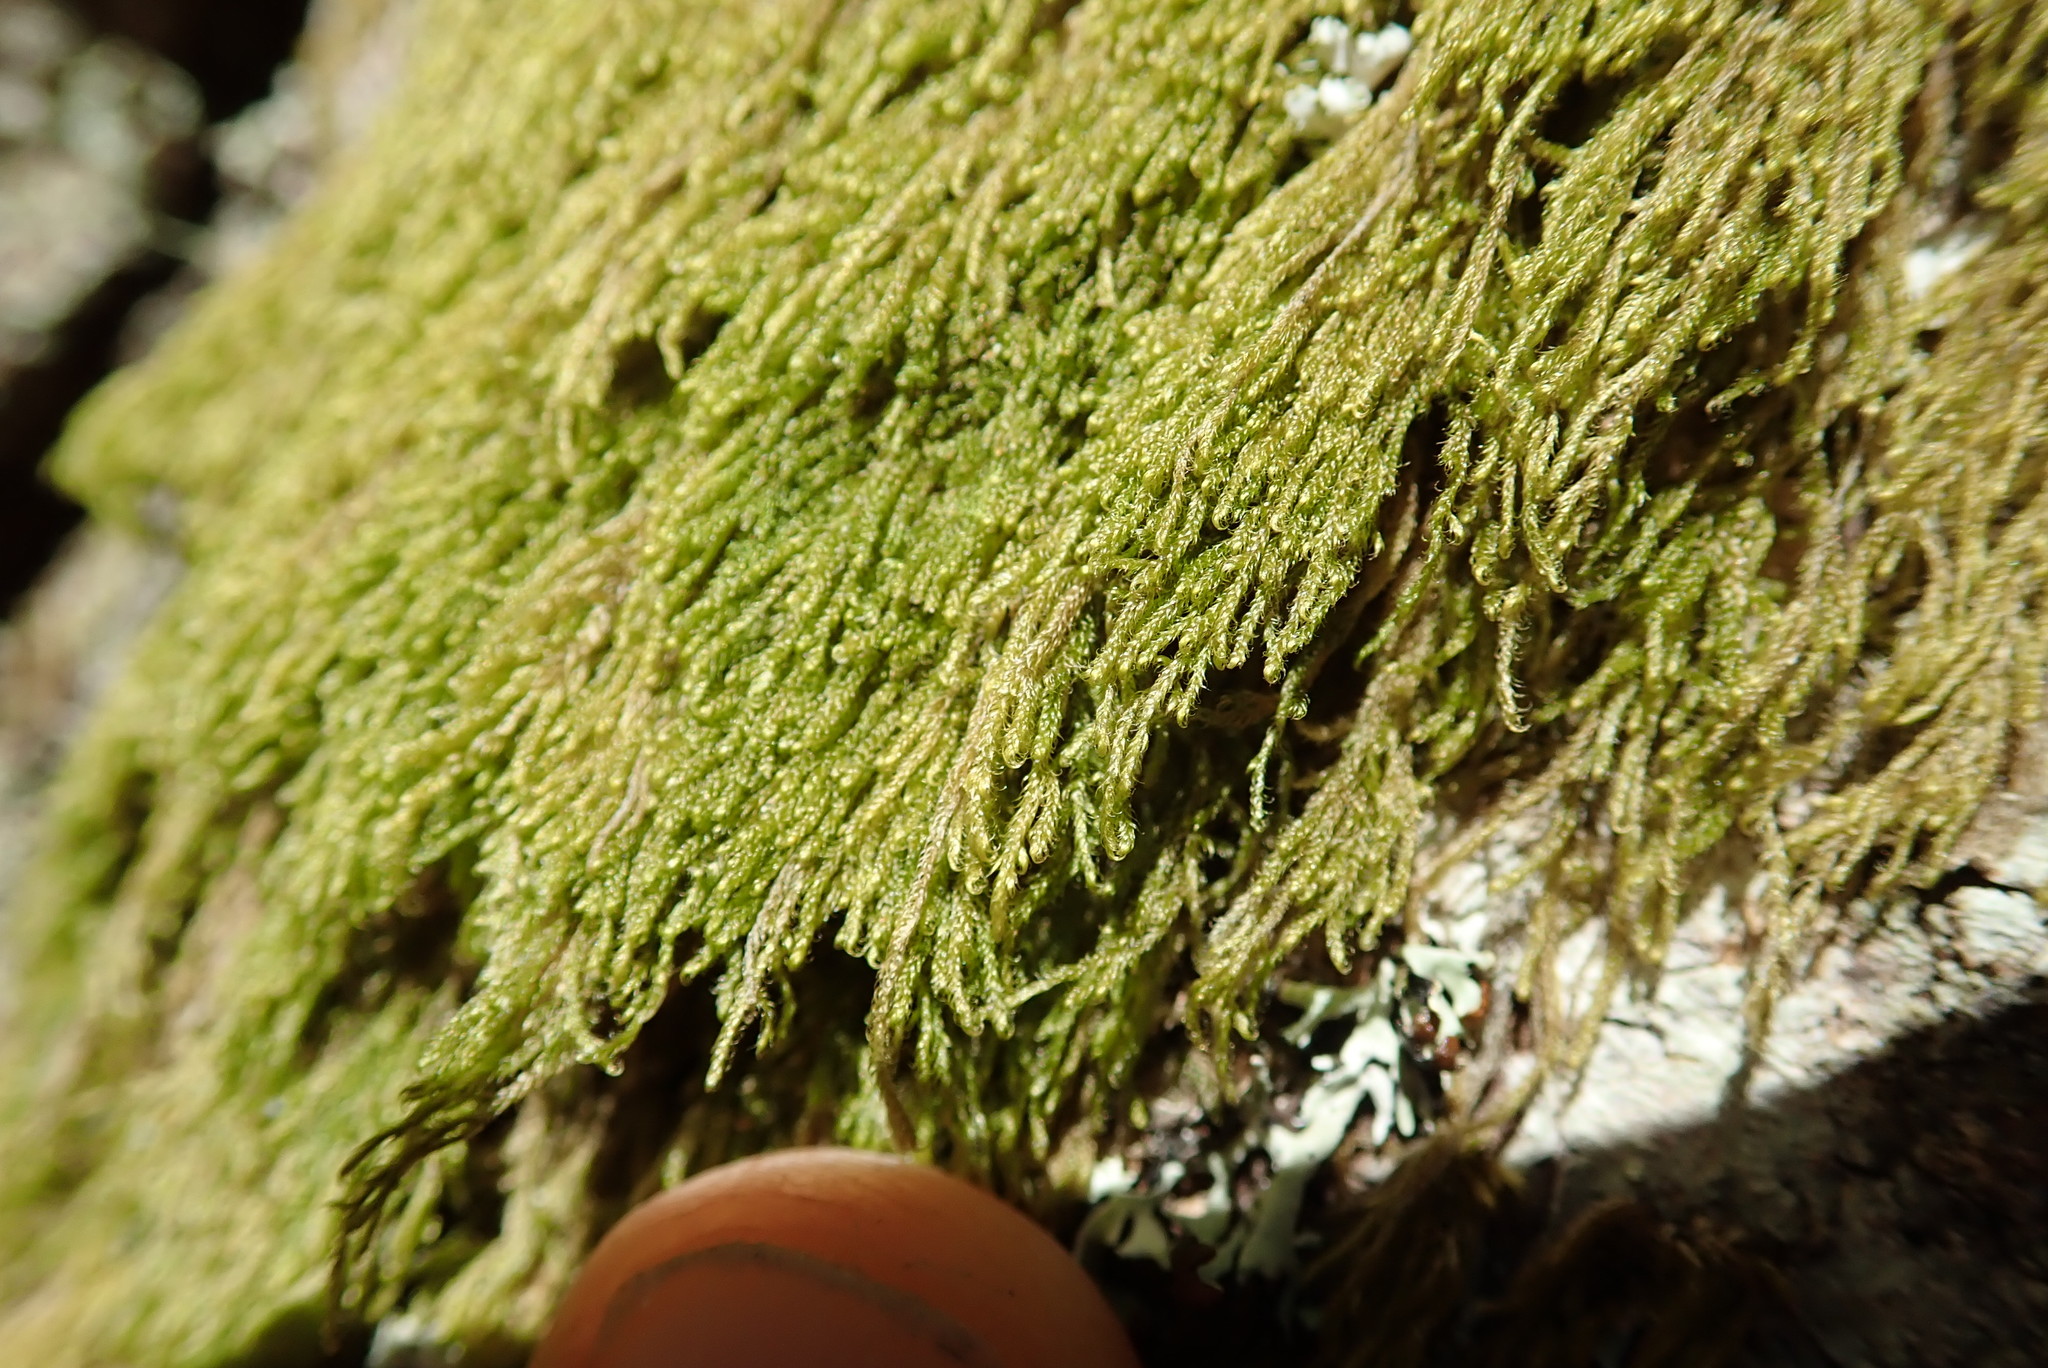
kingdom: Plantae
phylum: Bryophyta
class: Bryopsida
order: Hypnales
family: Pylaisiadelphaceae
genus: Trochophyllohypnum
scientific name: Trochophyllohypnum circinale
